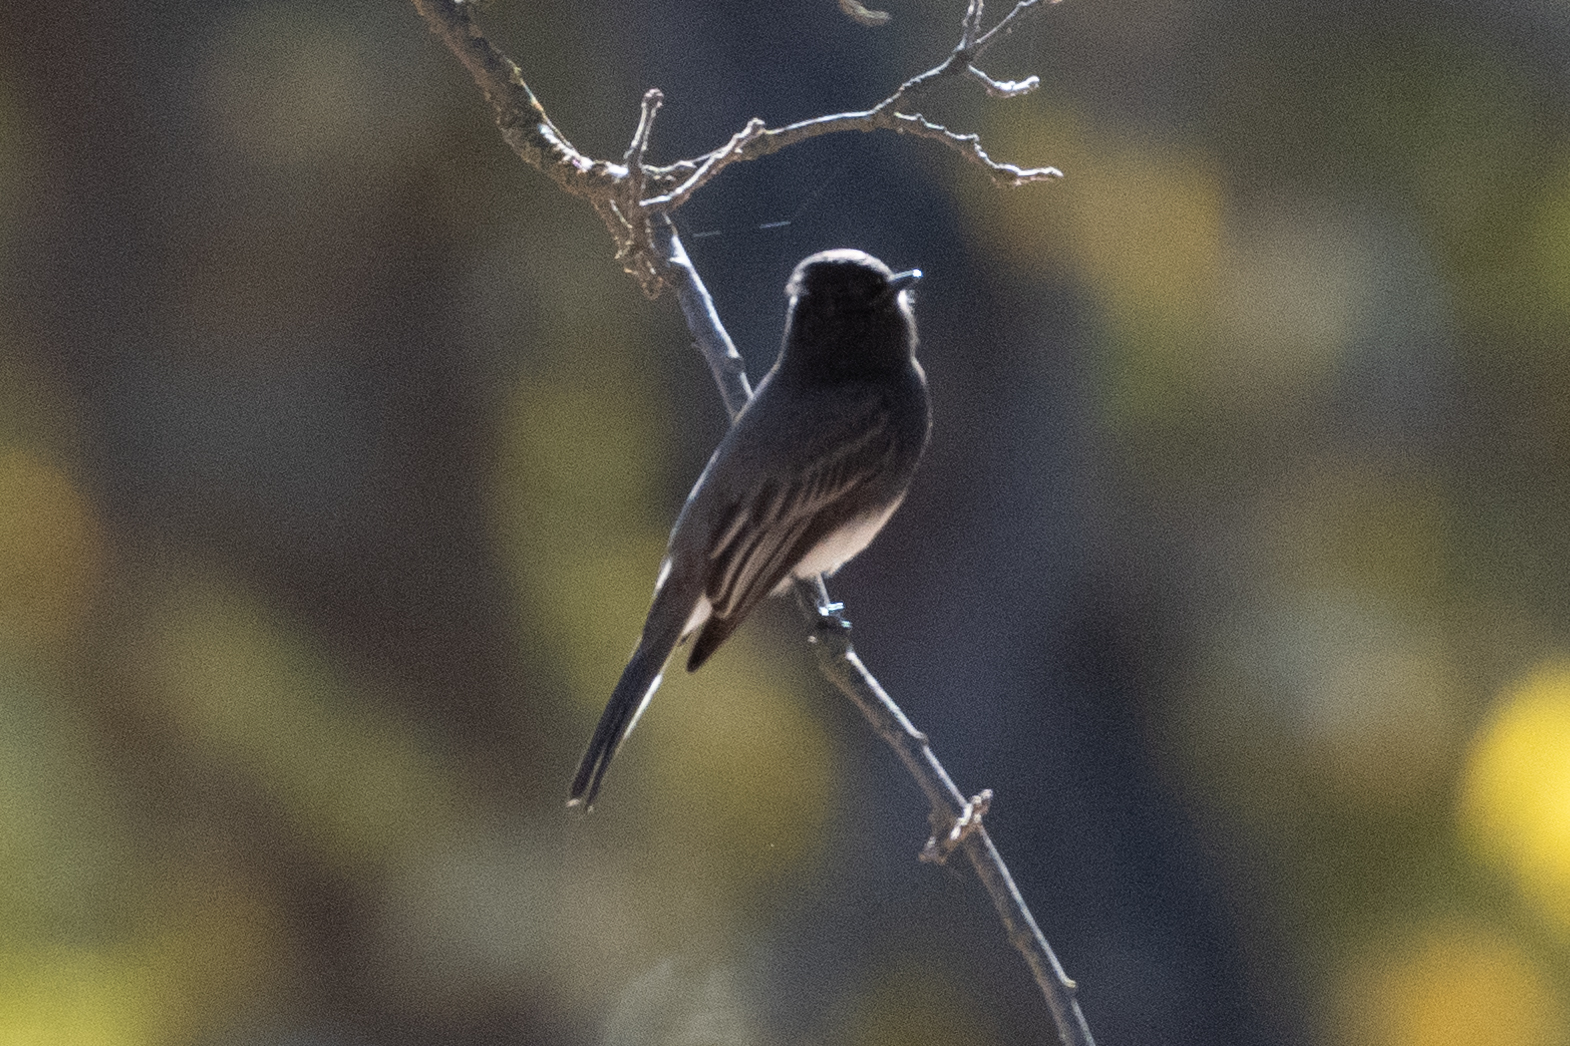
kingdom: Animalia
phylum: Chordata
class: Aves
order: Passeriformes
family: Tyrannidae
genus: Sayornis
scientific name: Sayornis nigricans
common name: Black phoebe
